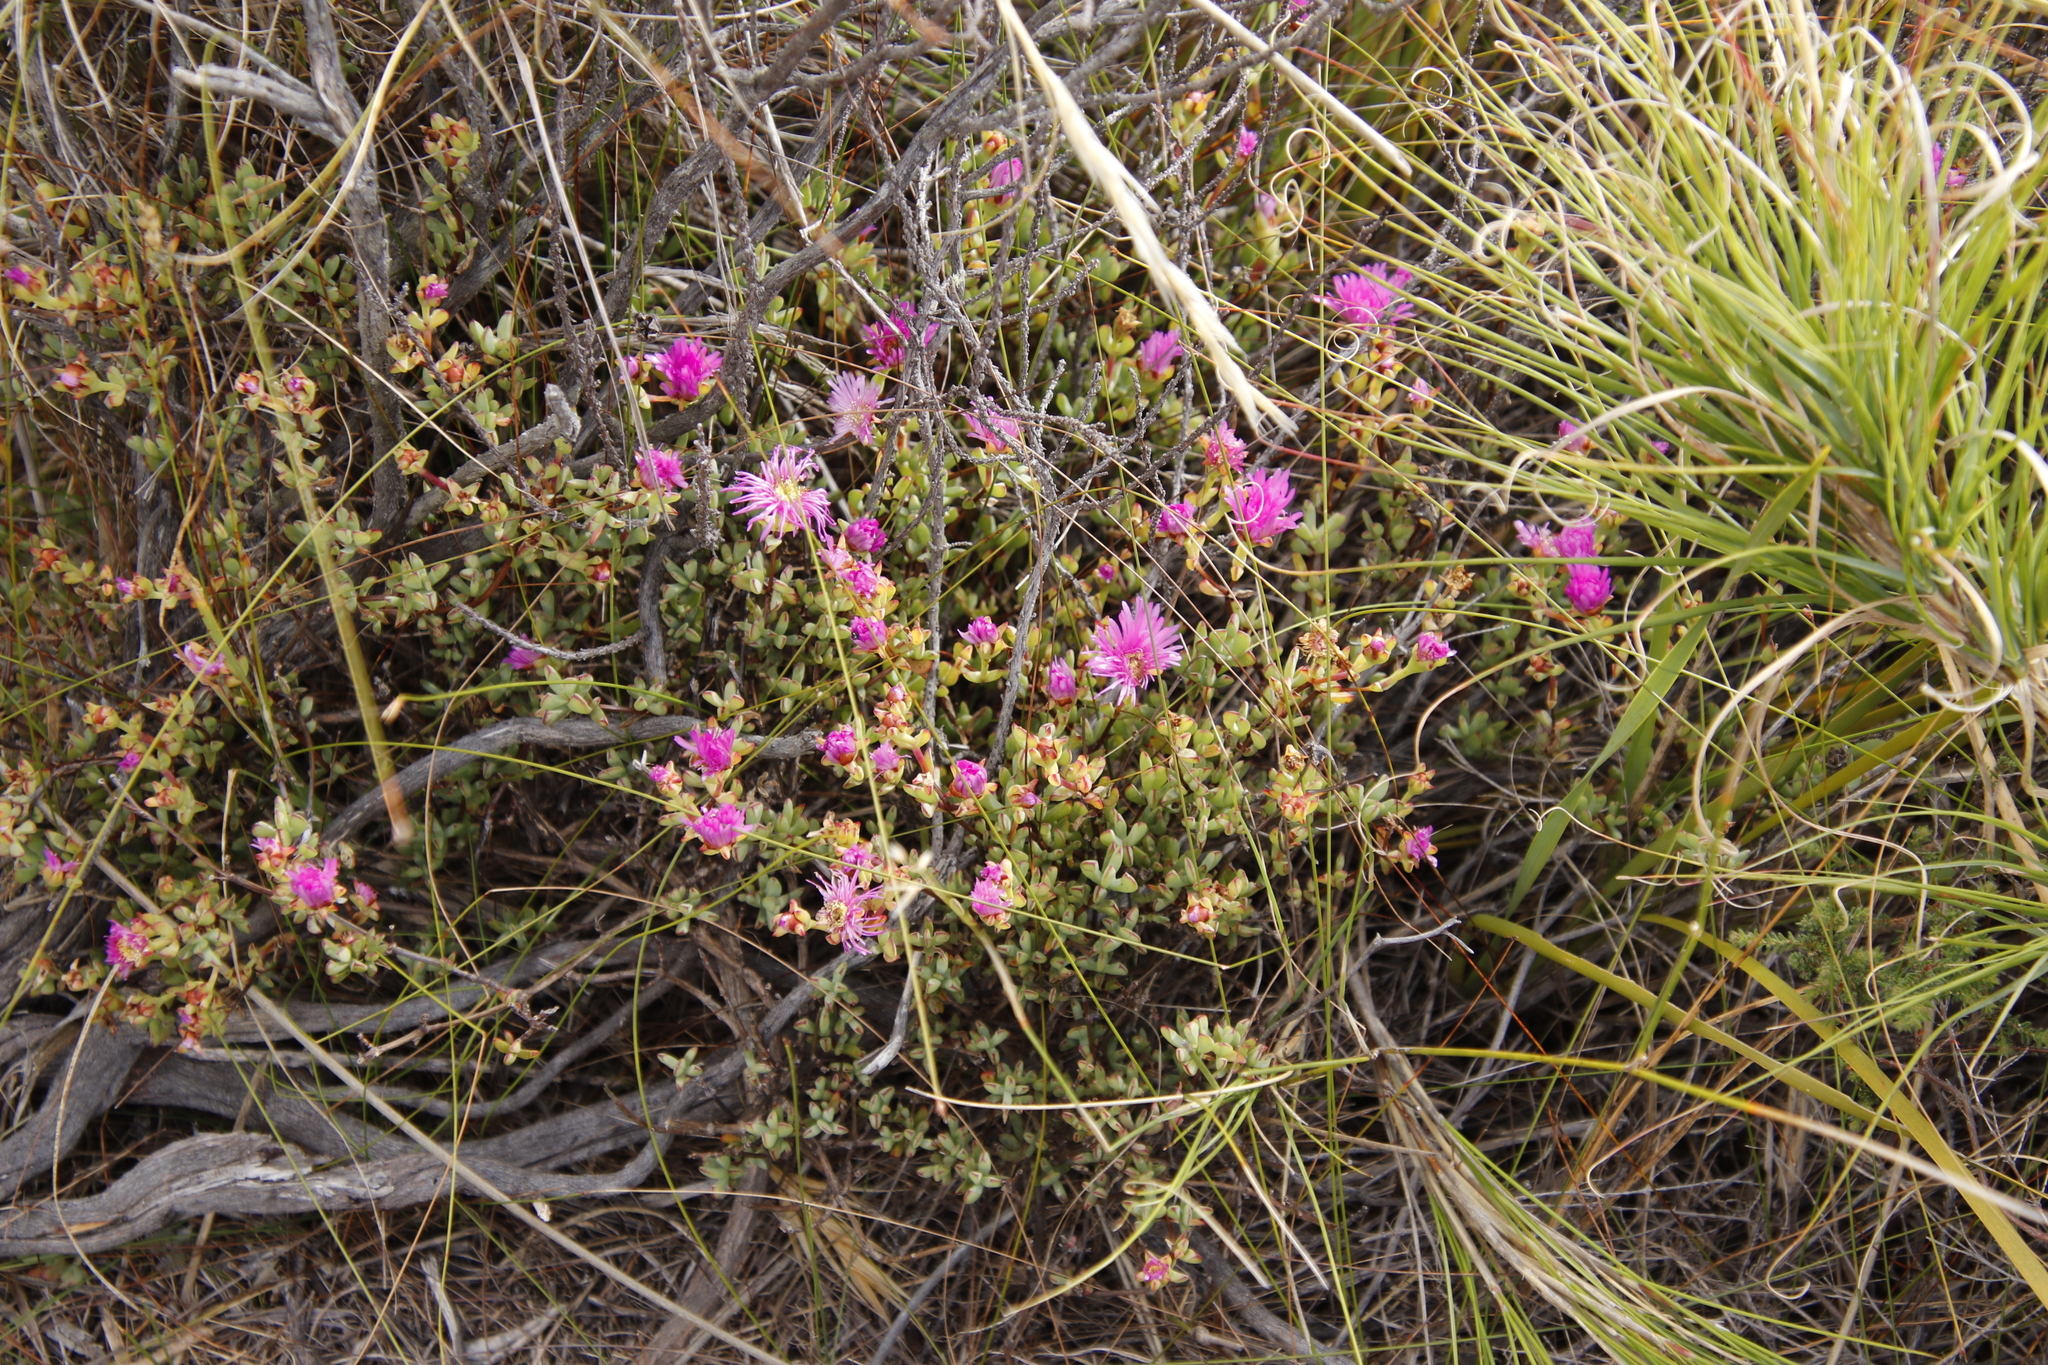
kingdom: Plantae
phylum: Tracheophyta
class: Magnoliopsida
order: Caryophyllales
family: Aizoaceae
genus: Oscularia
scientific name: Oscularia falciformis
